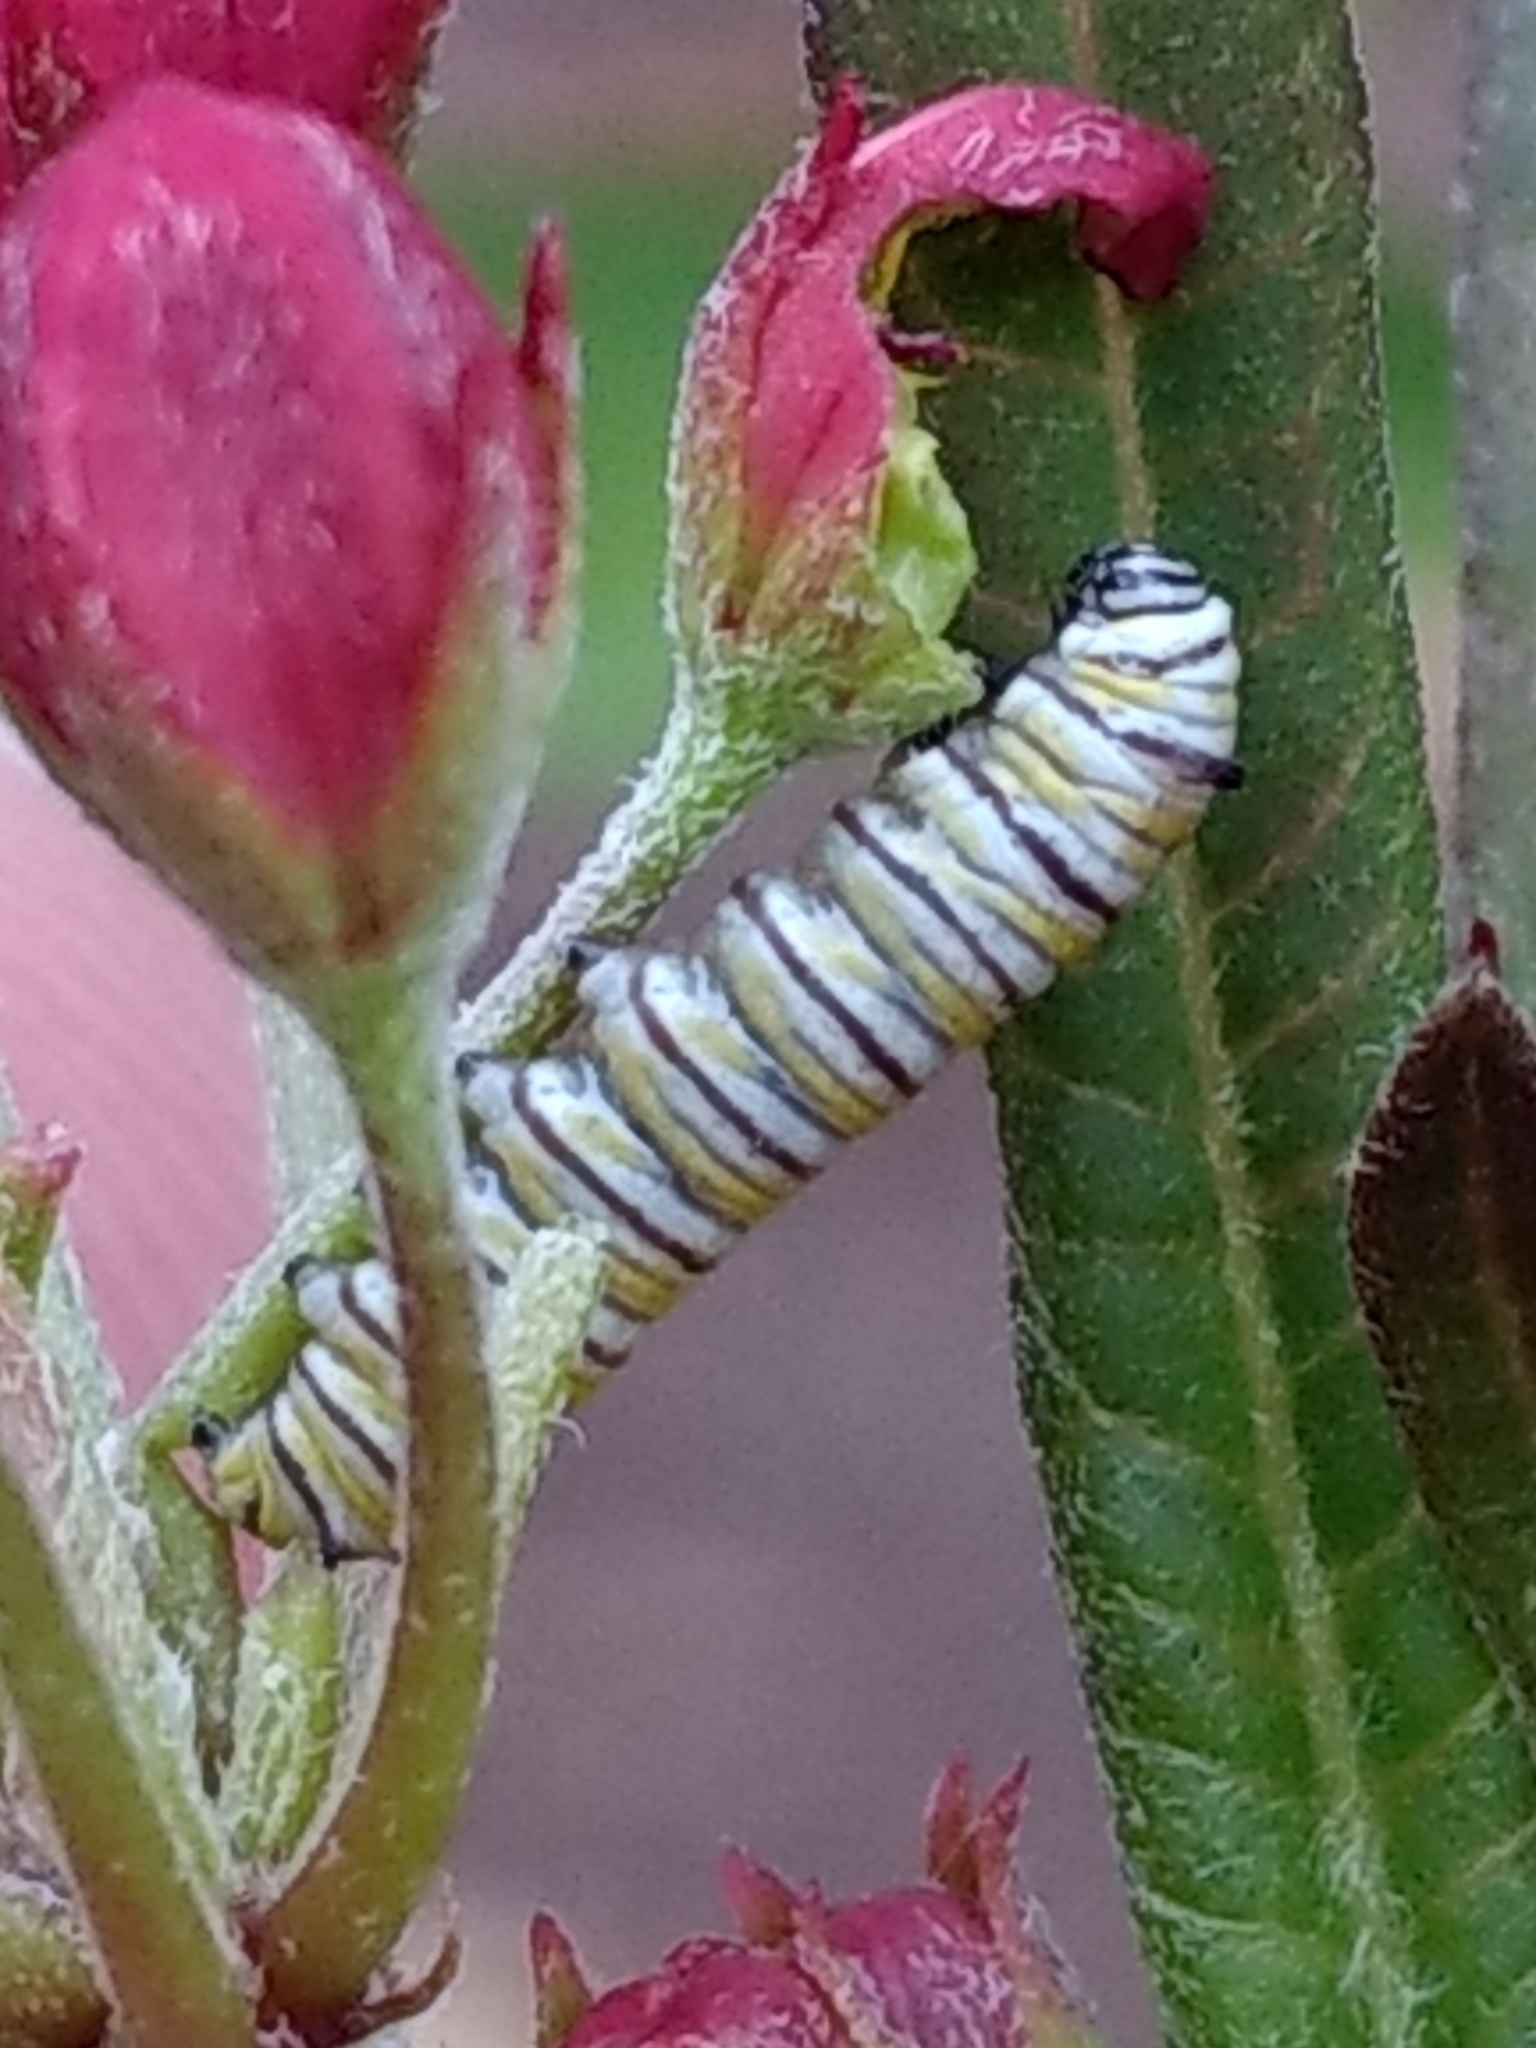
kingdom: Animalia
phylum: Arthropoda
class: Insecta
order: Lepidoptera
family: Nymphalidae
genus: Danaus
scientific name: Danaus plexippus
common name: Monarch
